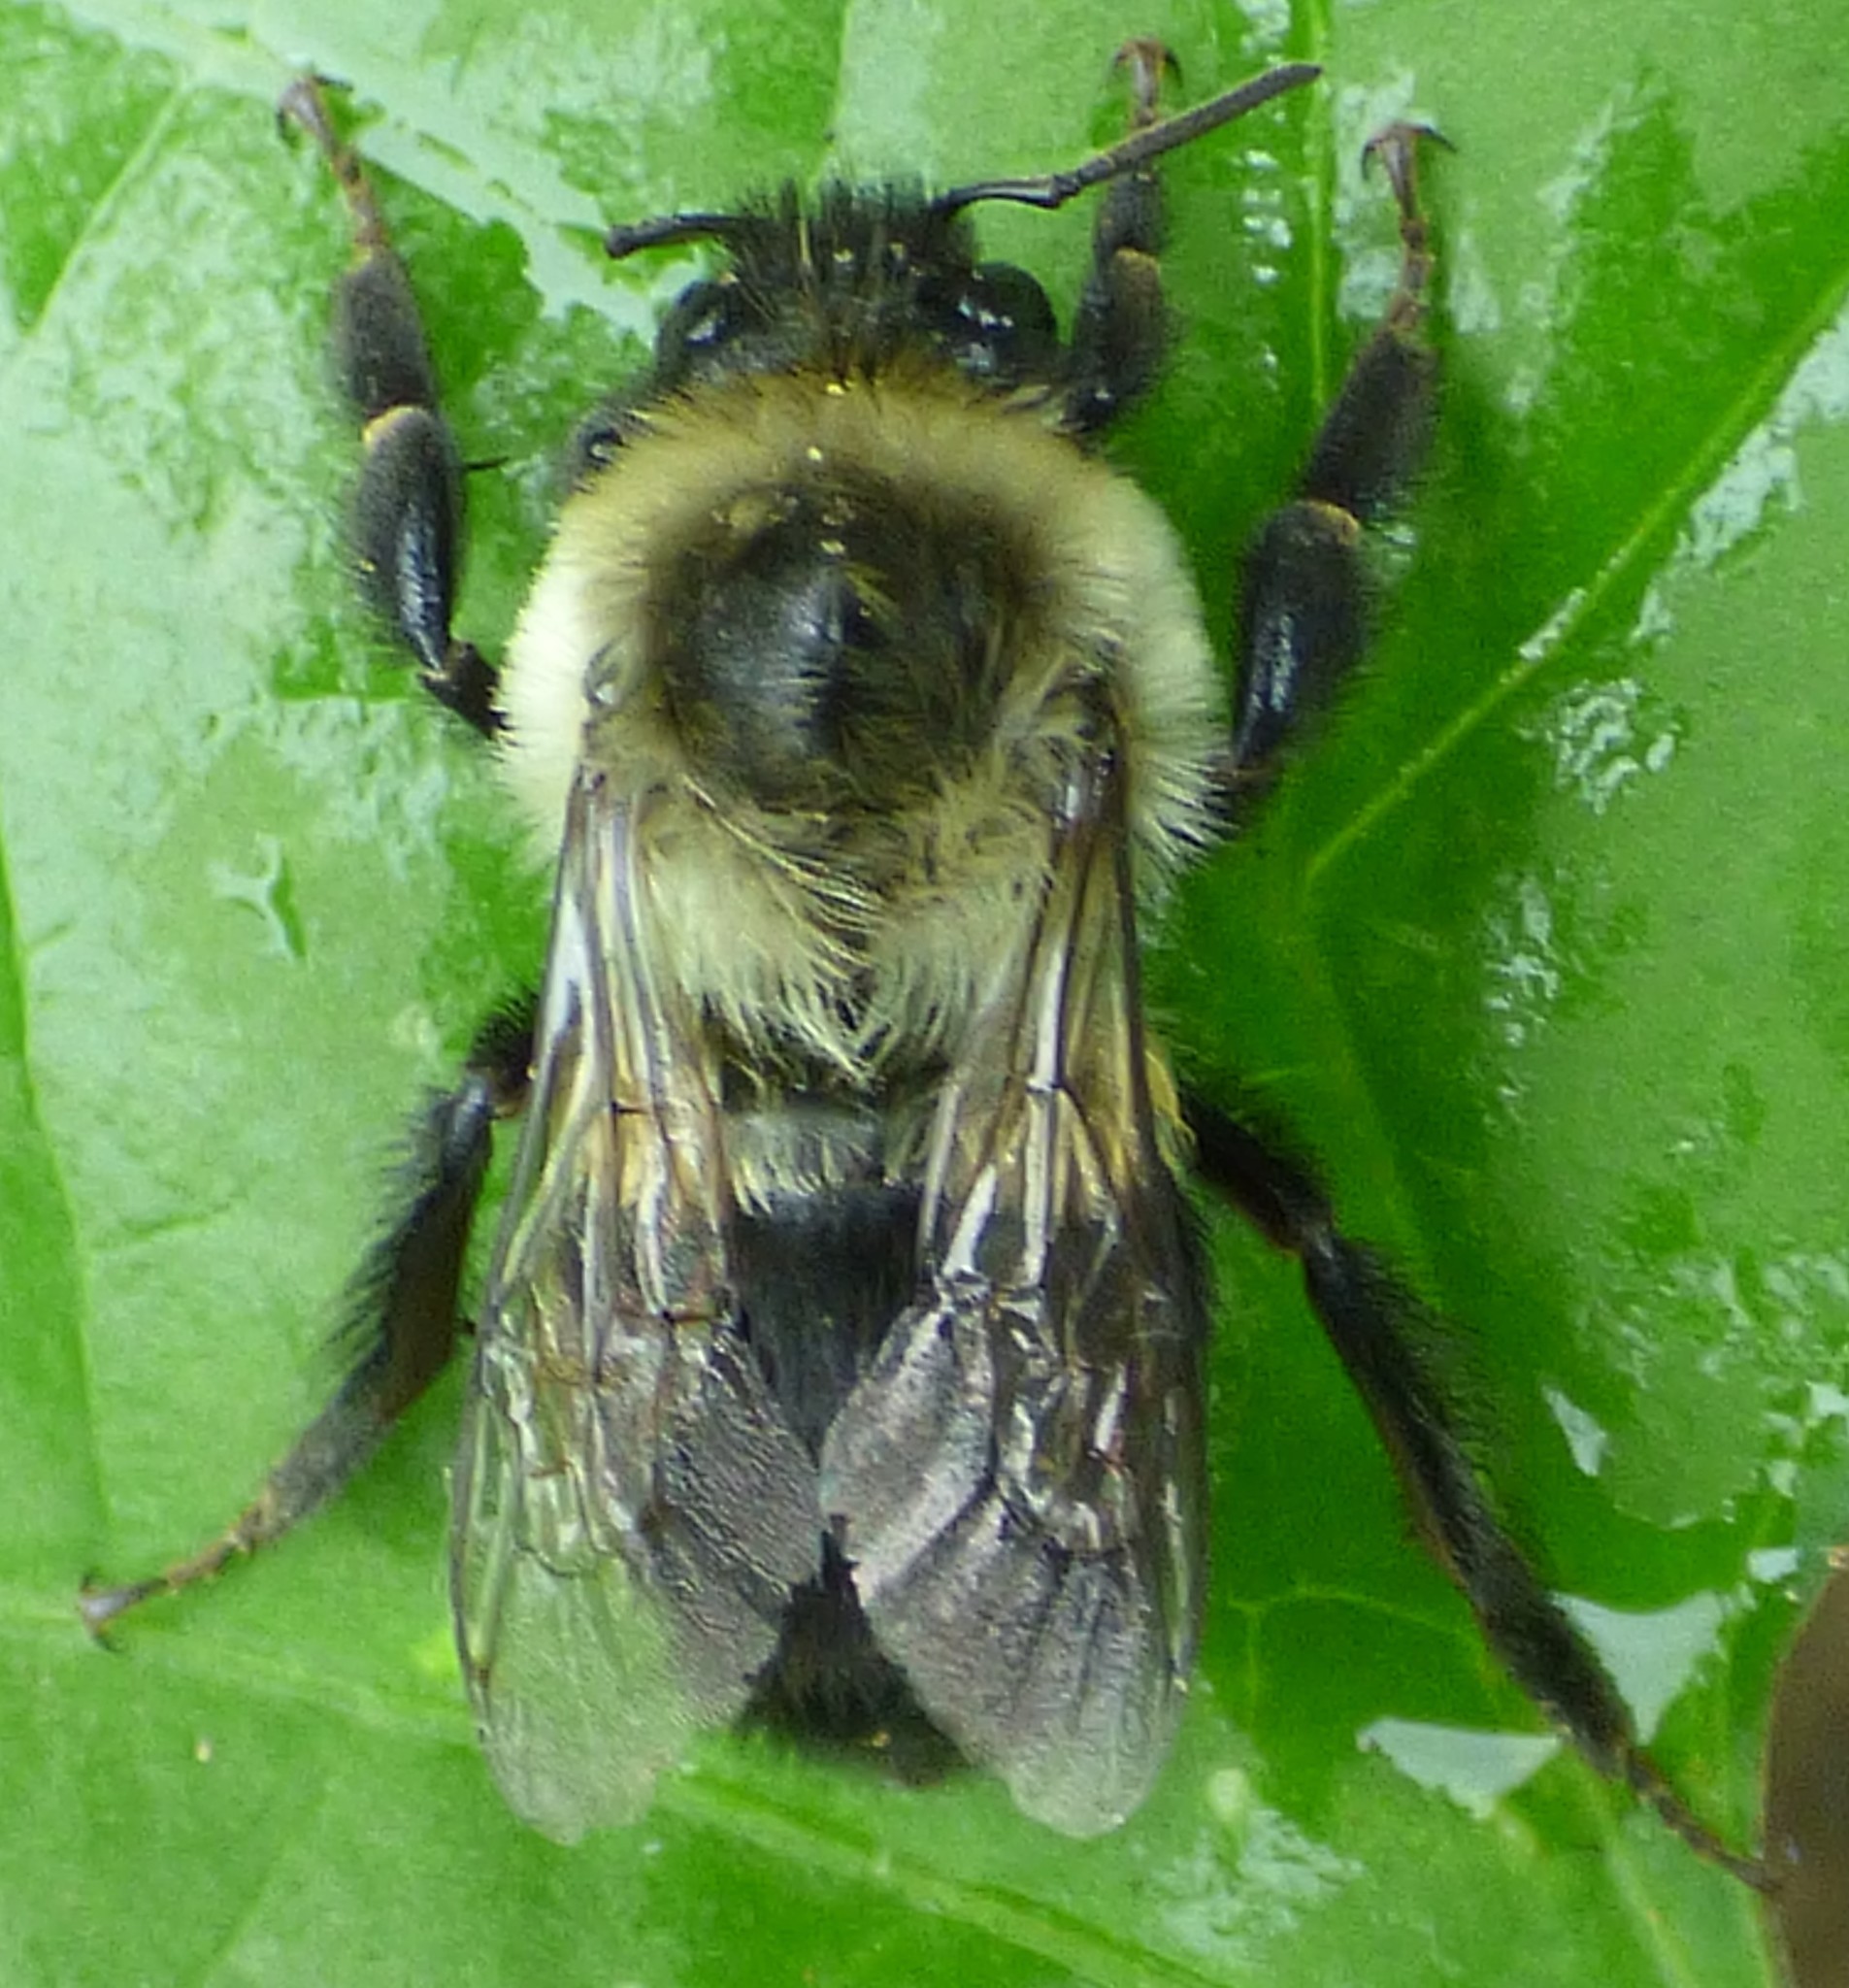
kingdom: Animalia
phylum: Arthropoda
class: Insecta
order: Hymenoptera
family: Apidae
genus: Bombus
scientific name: Bombus impatiens
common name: Common eastern bumble bee
